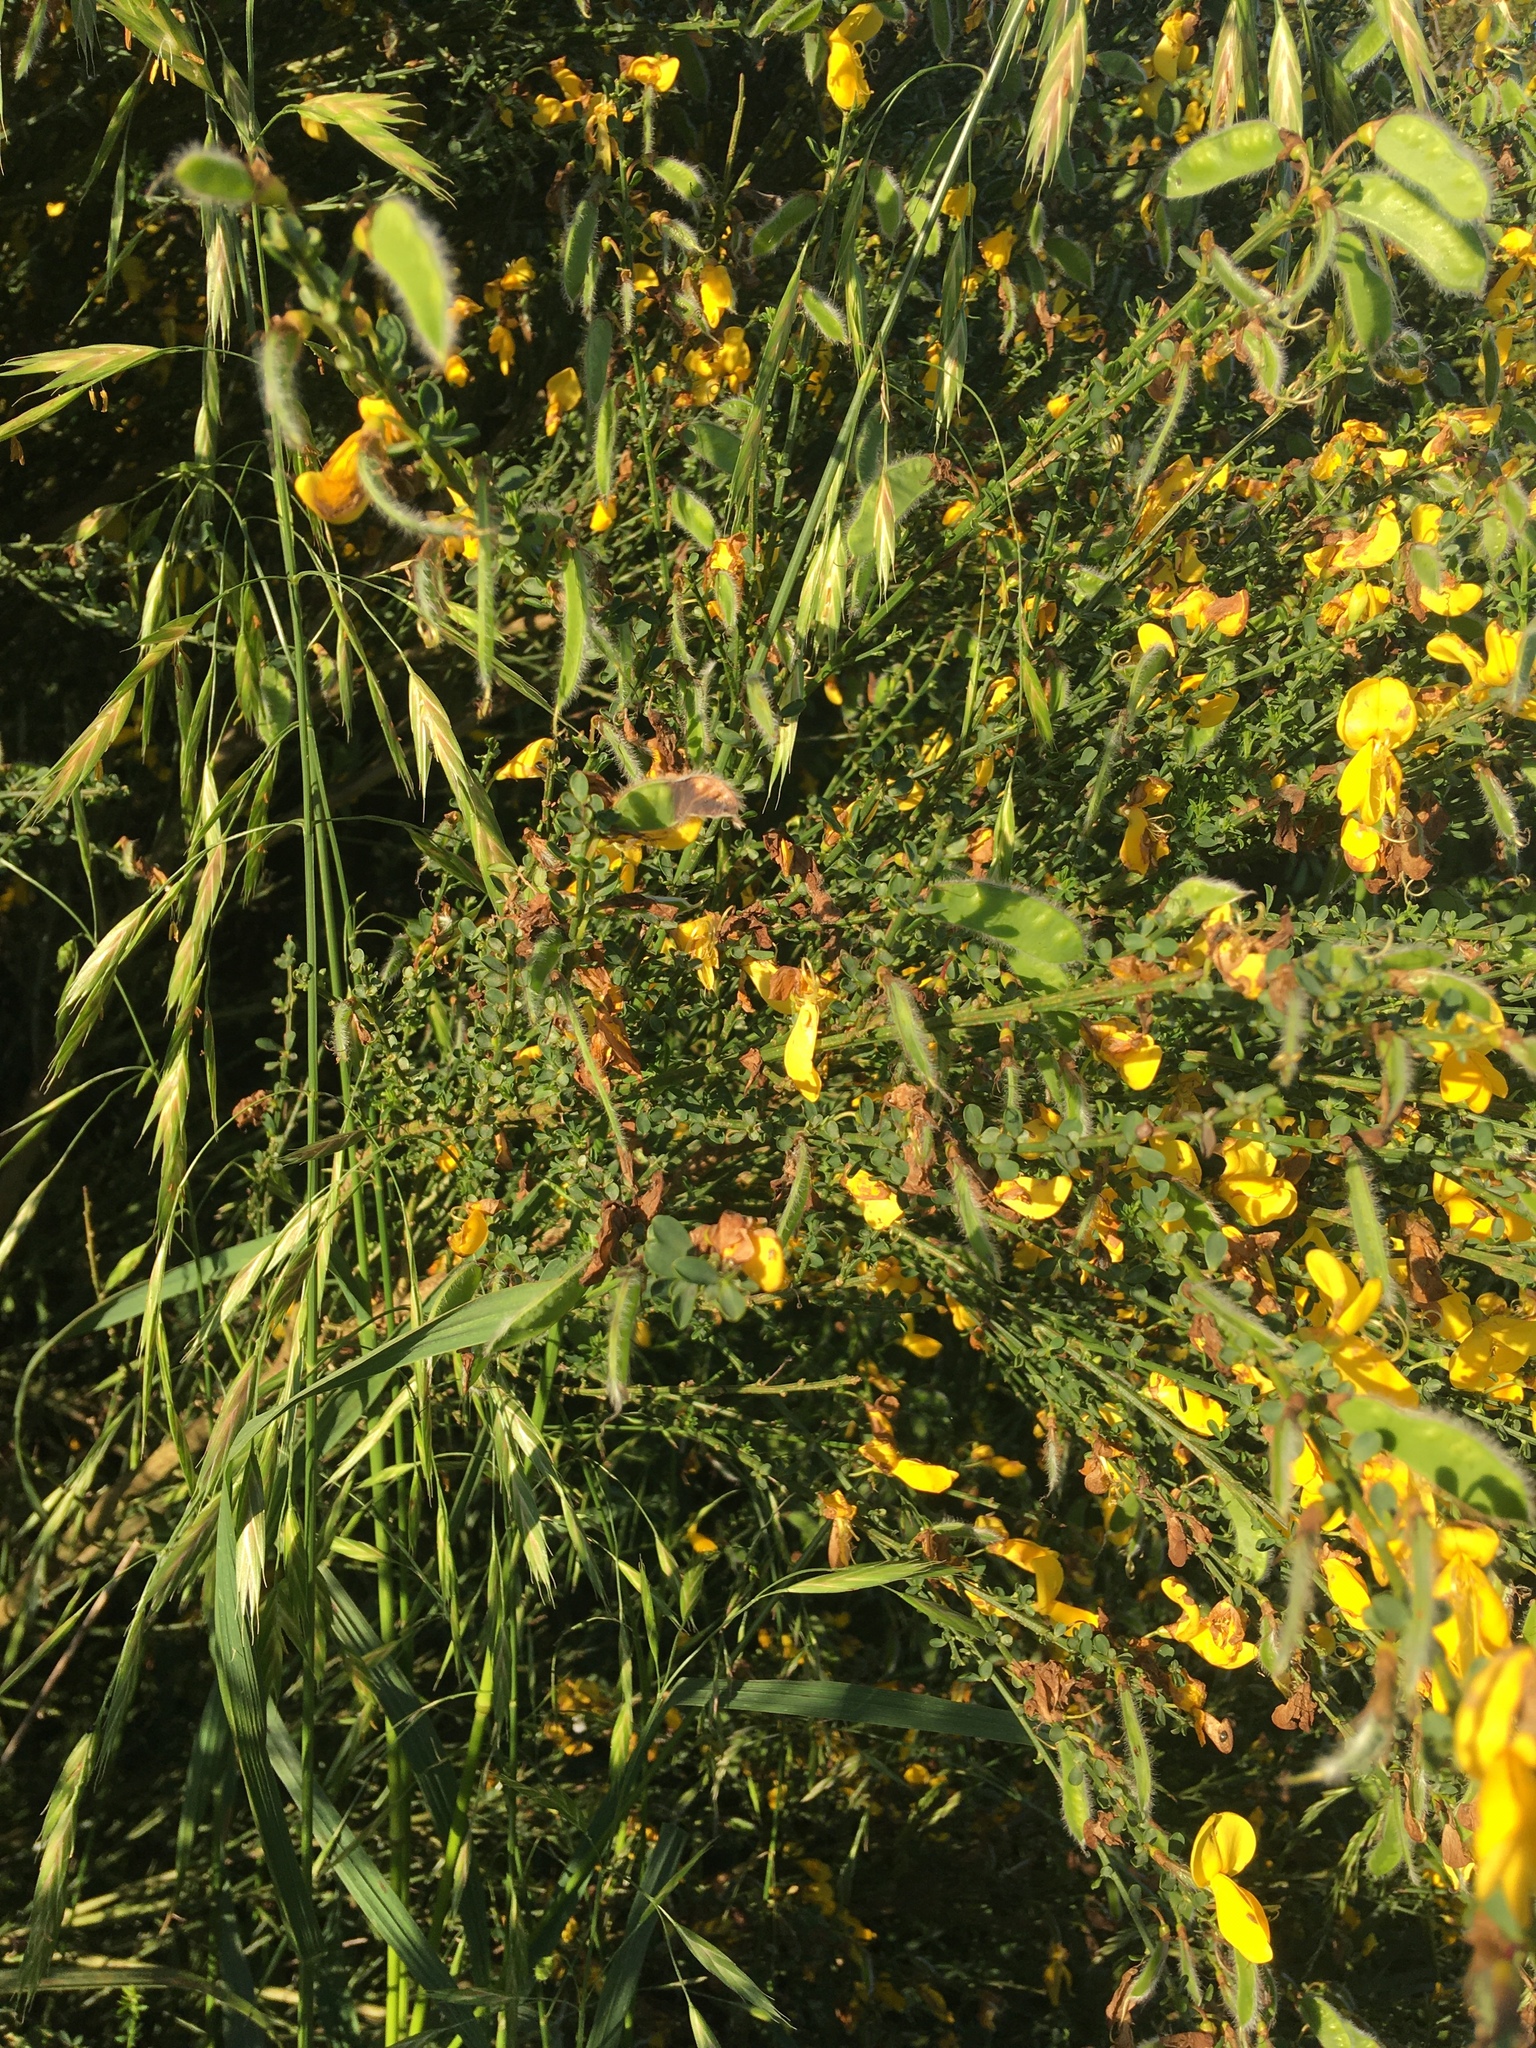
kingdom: Plantae
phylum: Tracheophyta
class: Magnoliopsida
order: Fabales
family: Fabaceae
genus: Cytisus
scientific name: Cytisus scoparius
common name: Scotch broom
